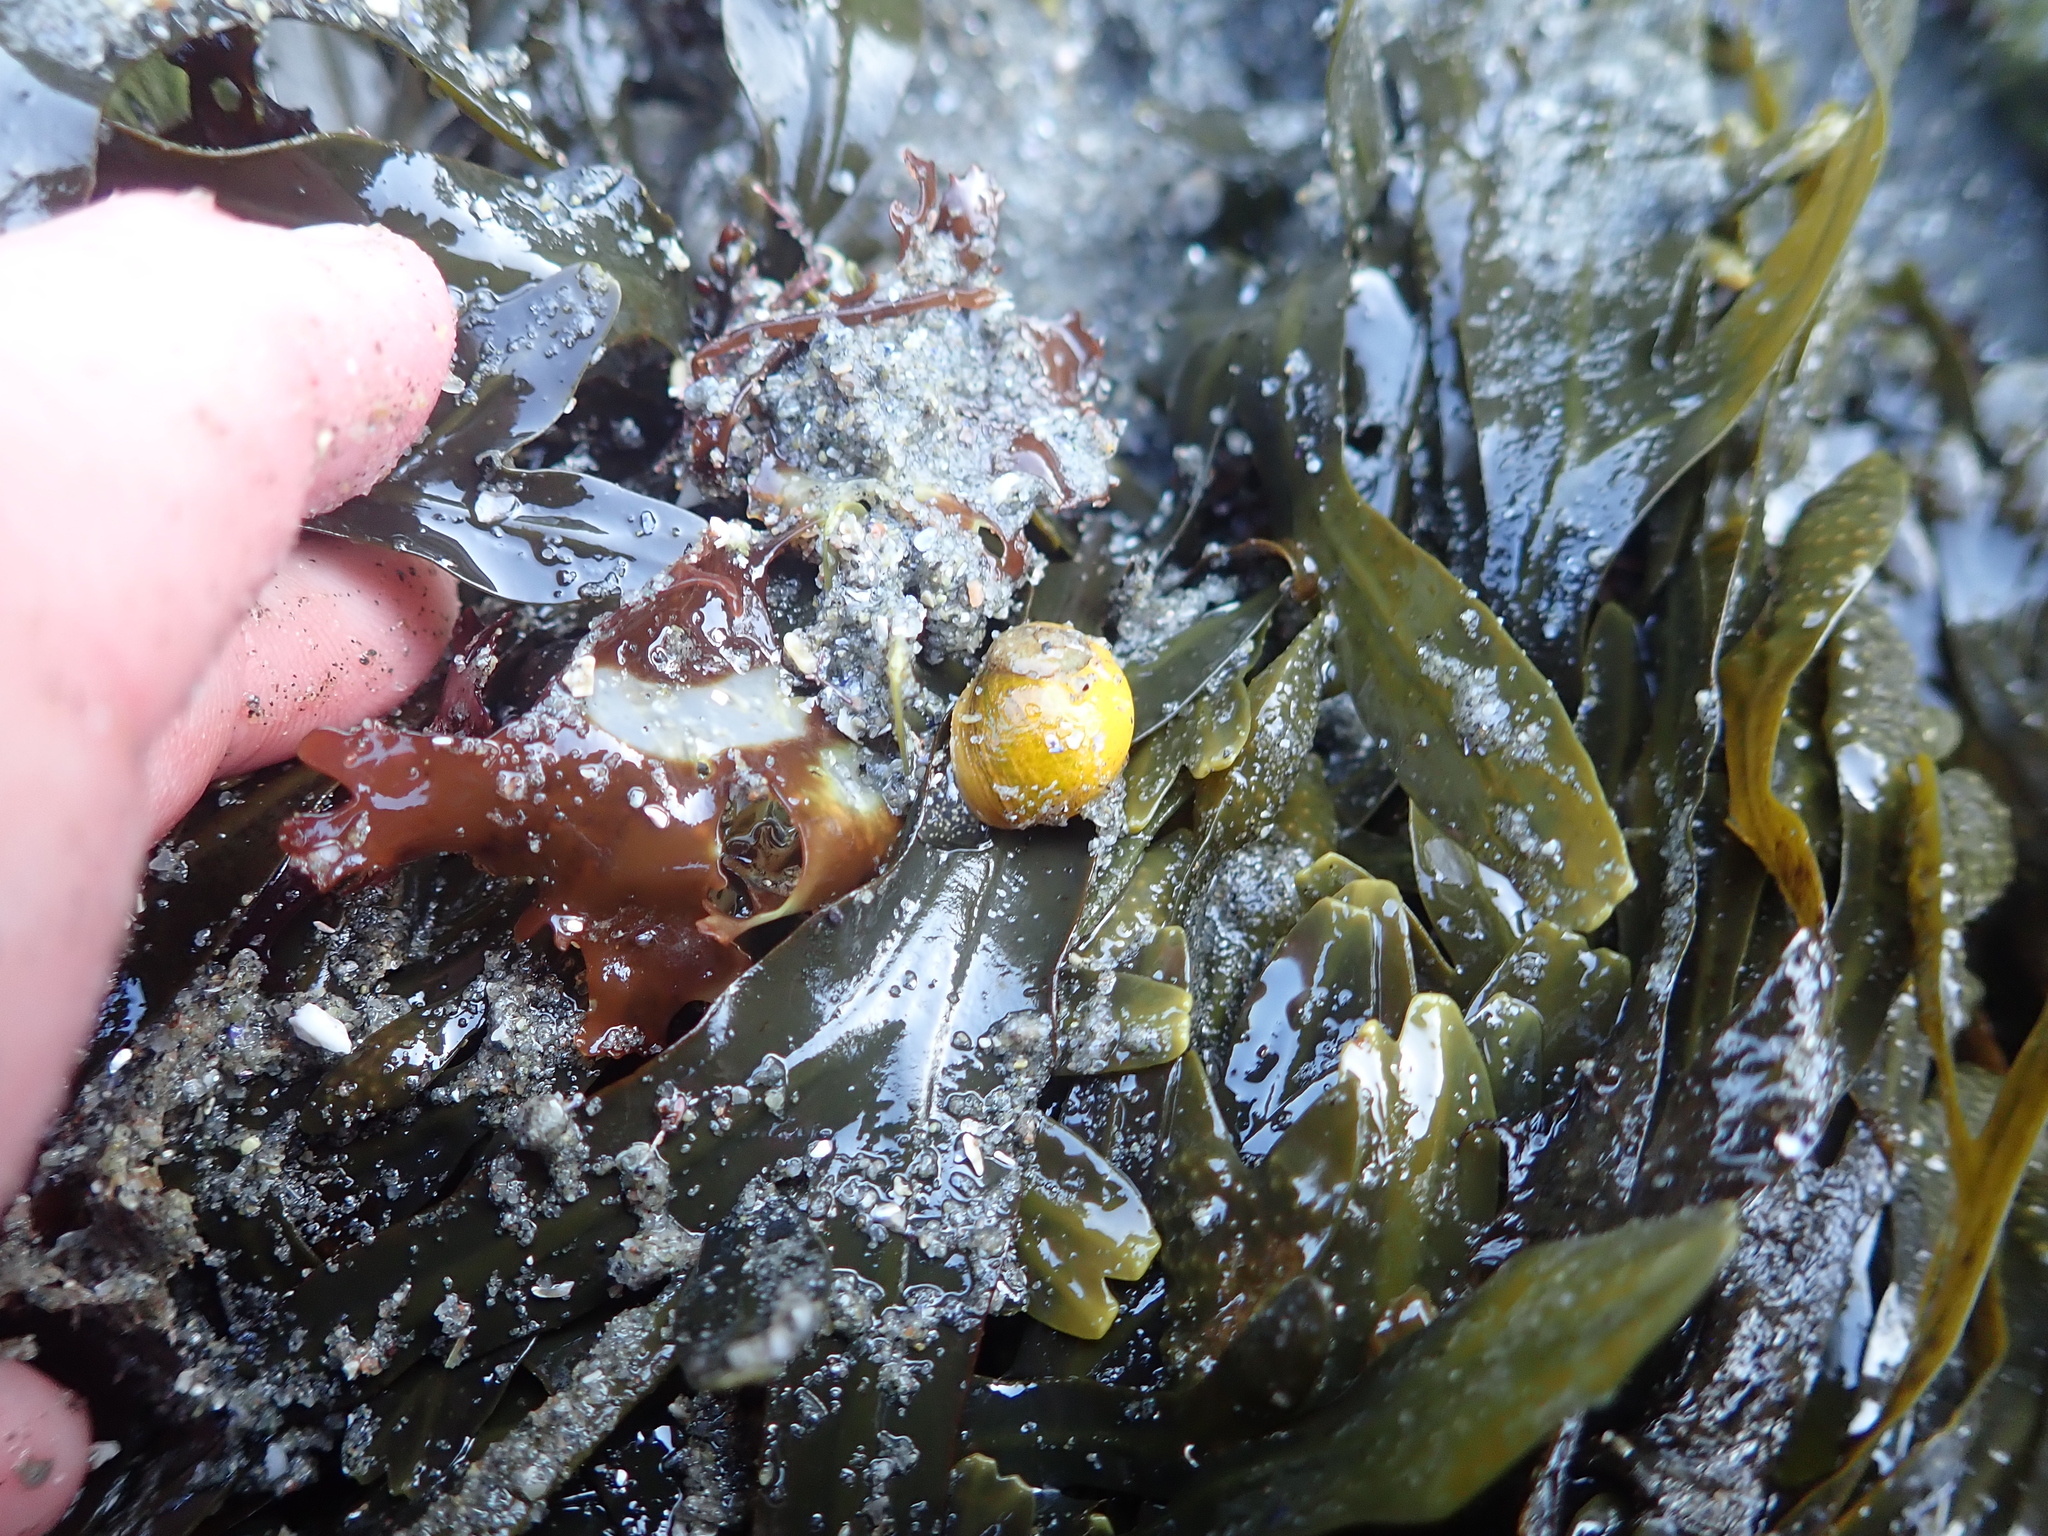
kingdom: Animalia
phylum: Mollusca
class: Gastropoda
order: Littorinimorpha
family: Littorinidae
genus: Littorina
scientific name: Littorina obtusata
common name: Flat periwinkle
